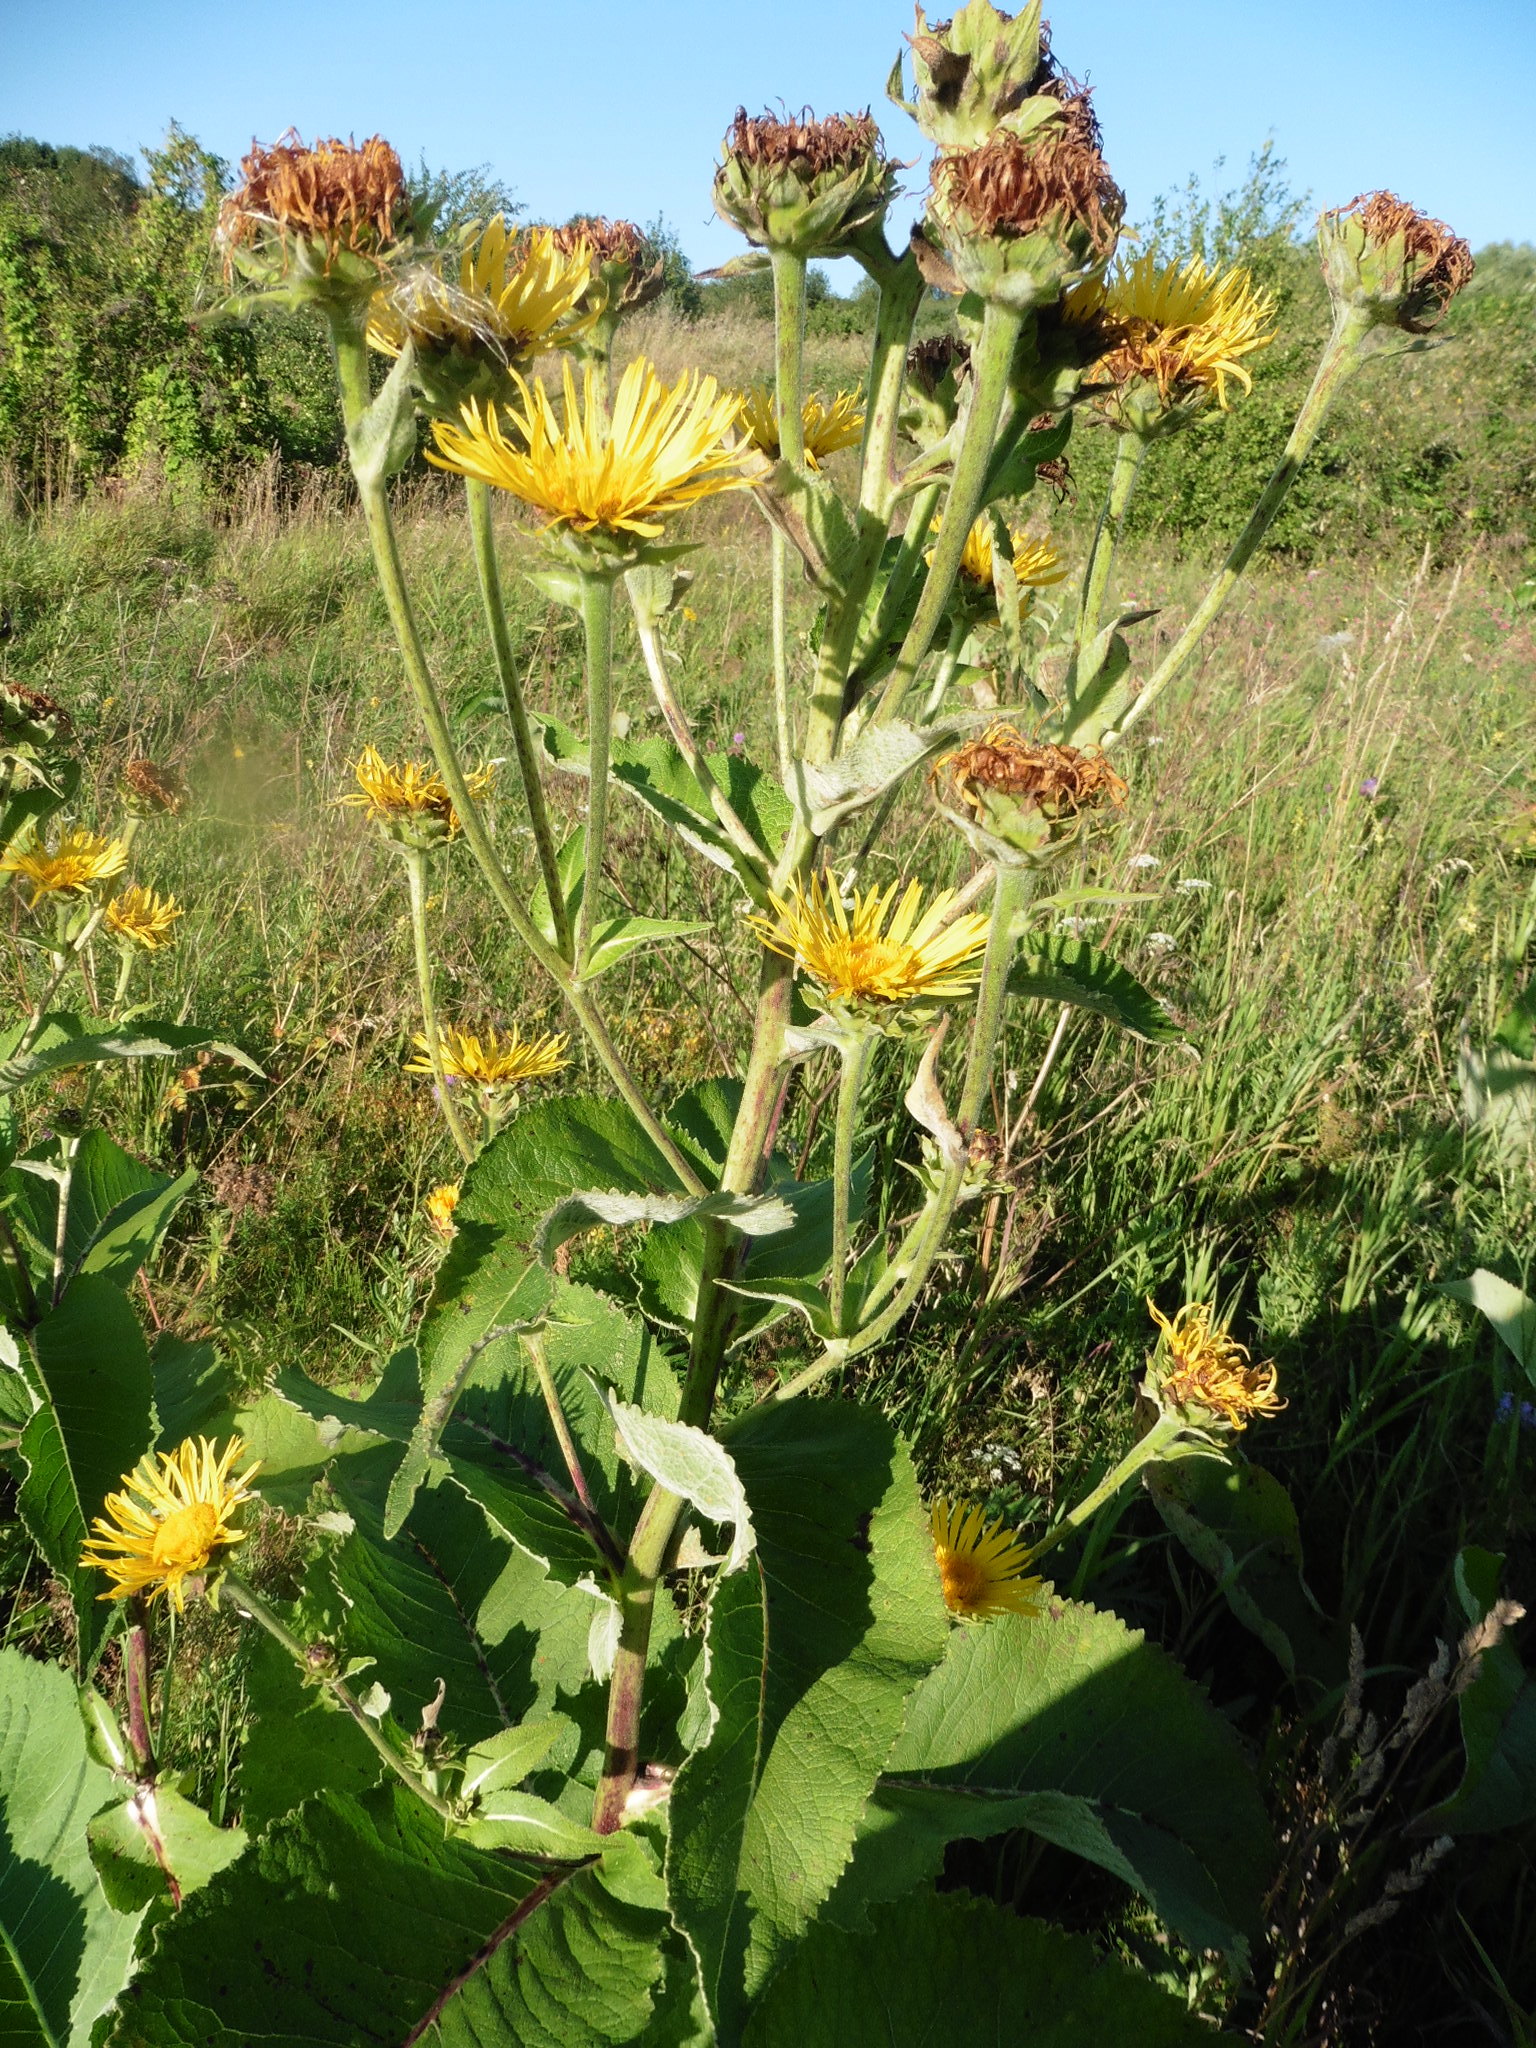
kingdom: Plantae
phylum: Tracheophyta
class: Magnoliopsida
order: Asterales
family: Asteraceae
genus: Inula
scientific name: Inula helenium
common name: Elecampane
